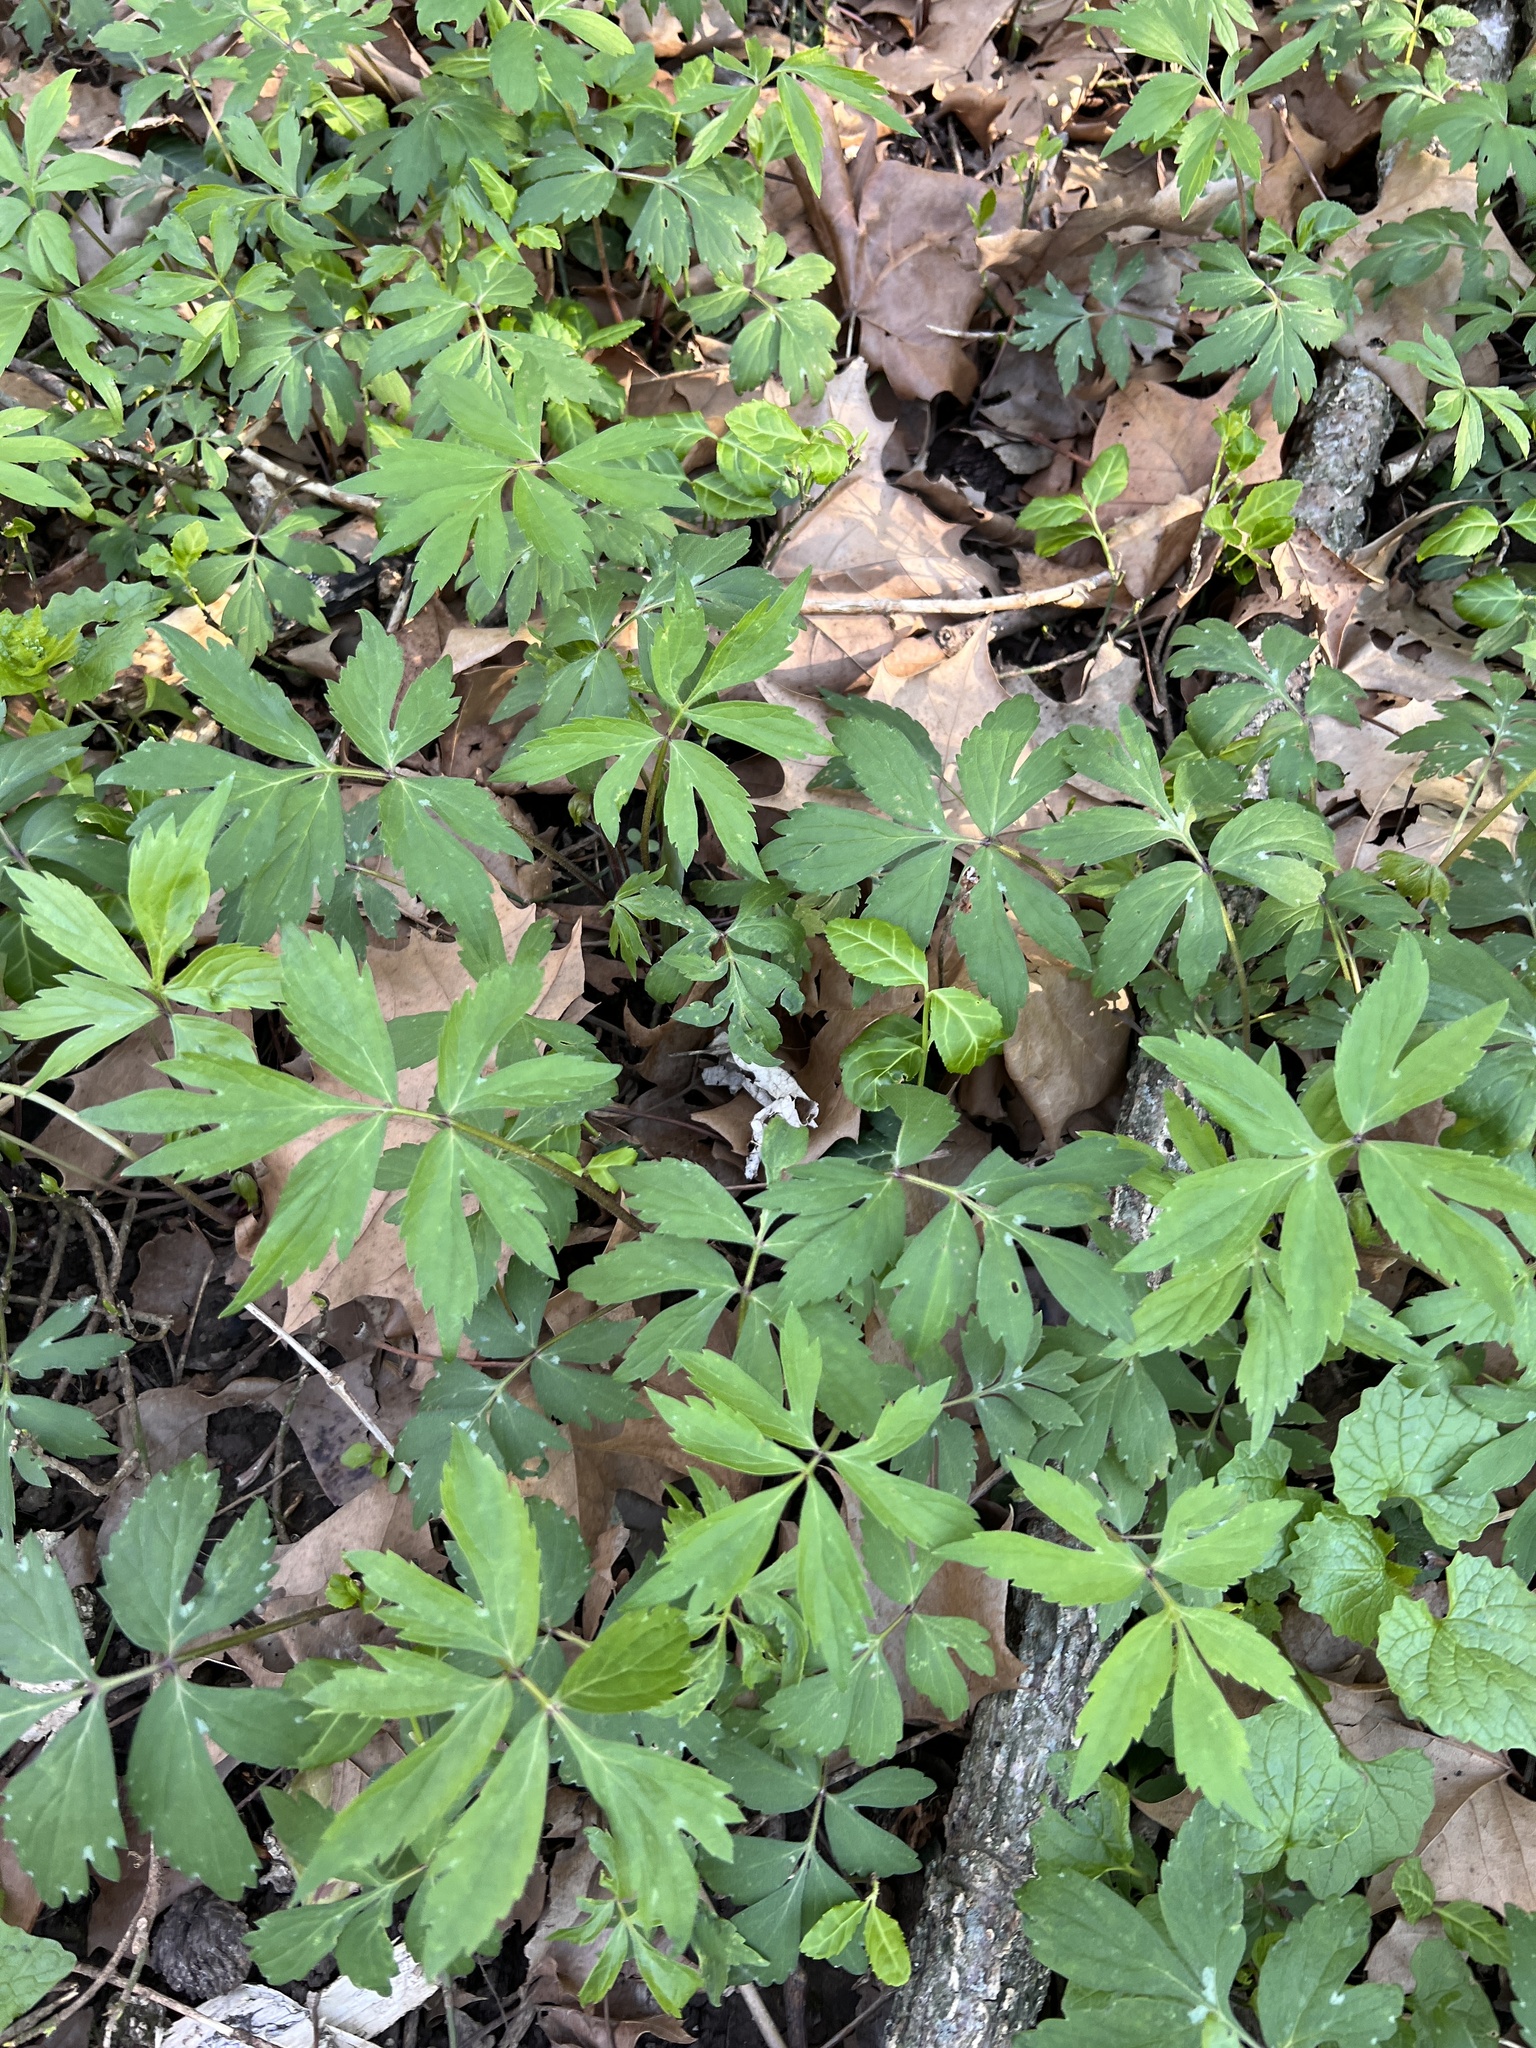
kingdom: Plantae
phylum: Tracheophyta
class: Magnoliopsida
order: Boraginales
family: Hydrophyllaceae
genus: Hydrophyllum
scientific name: Hydrophyllum virginianum
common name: Virginia waterleaf
